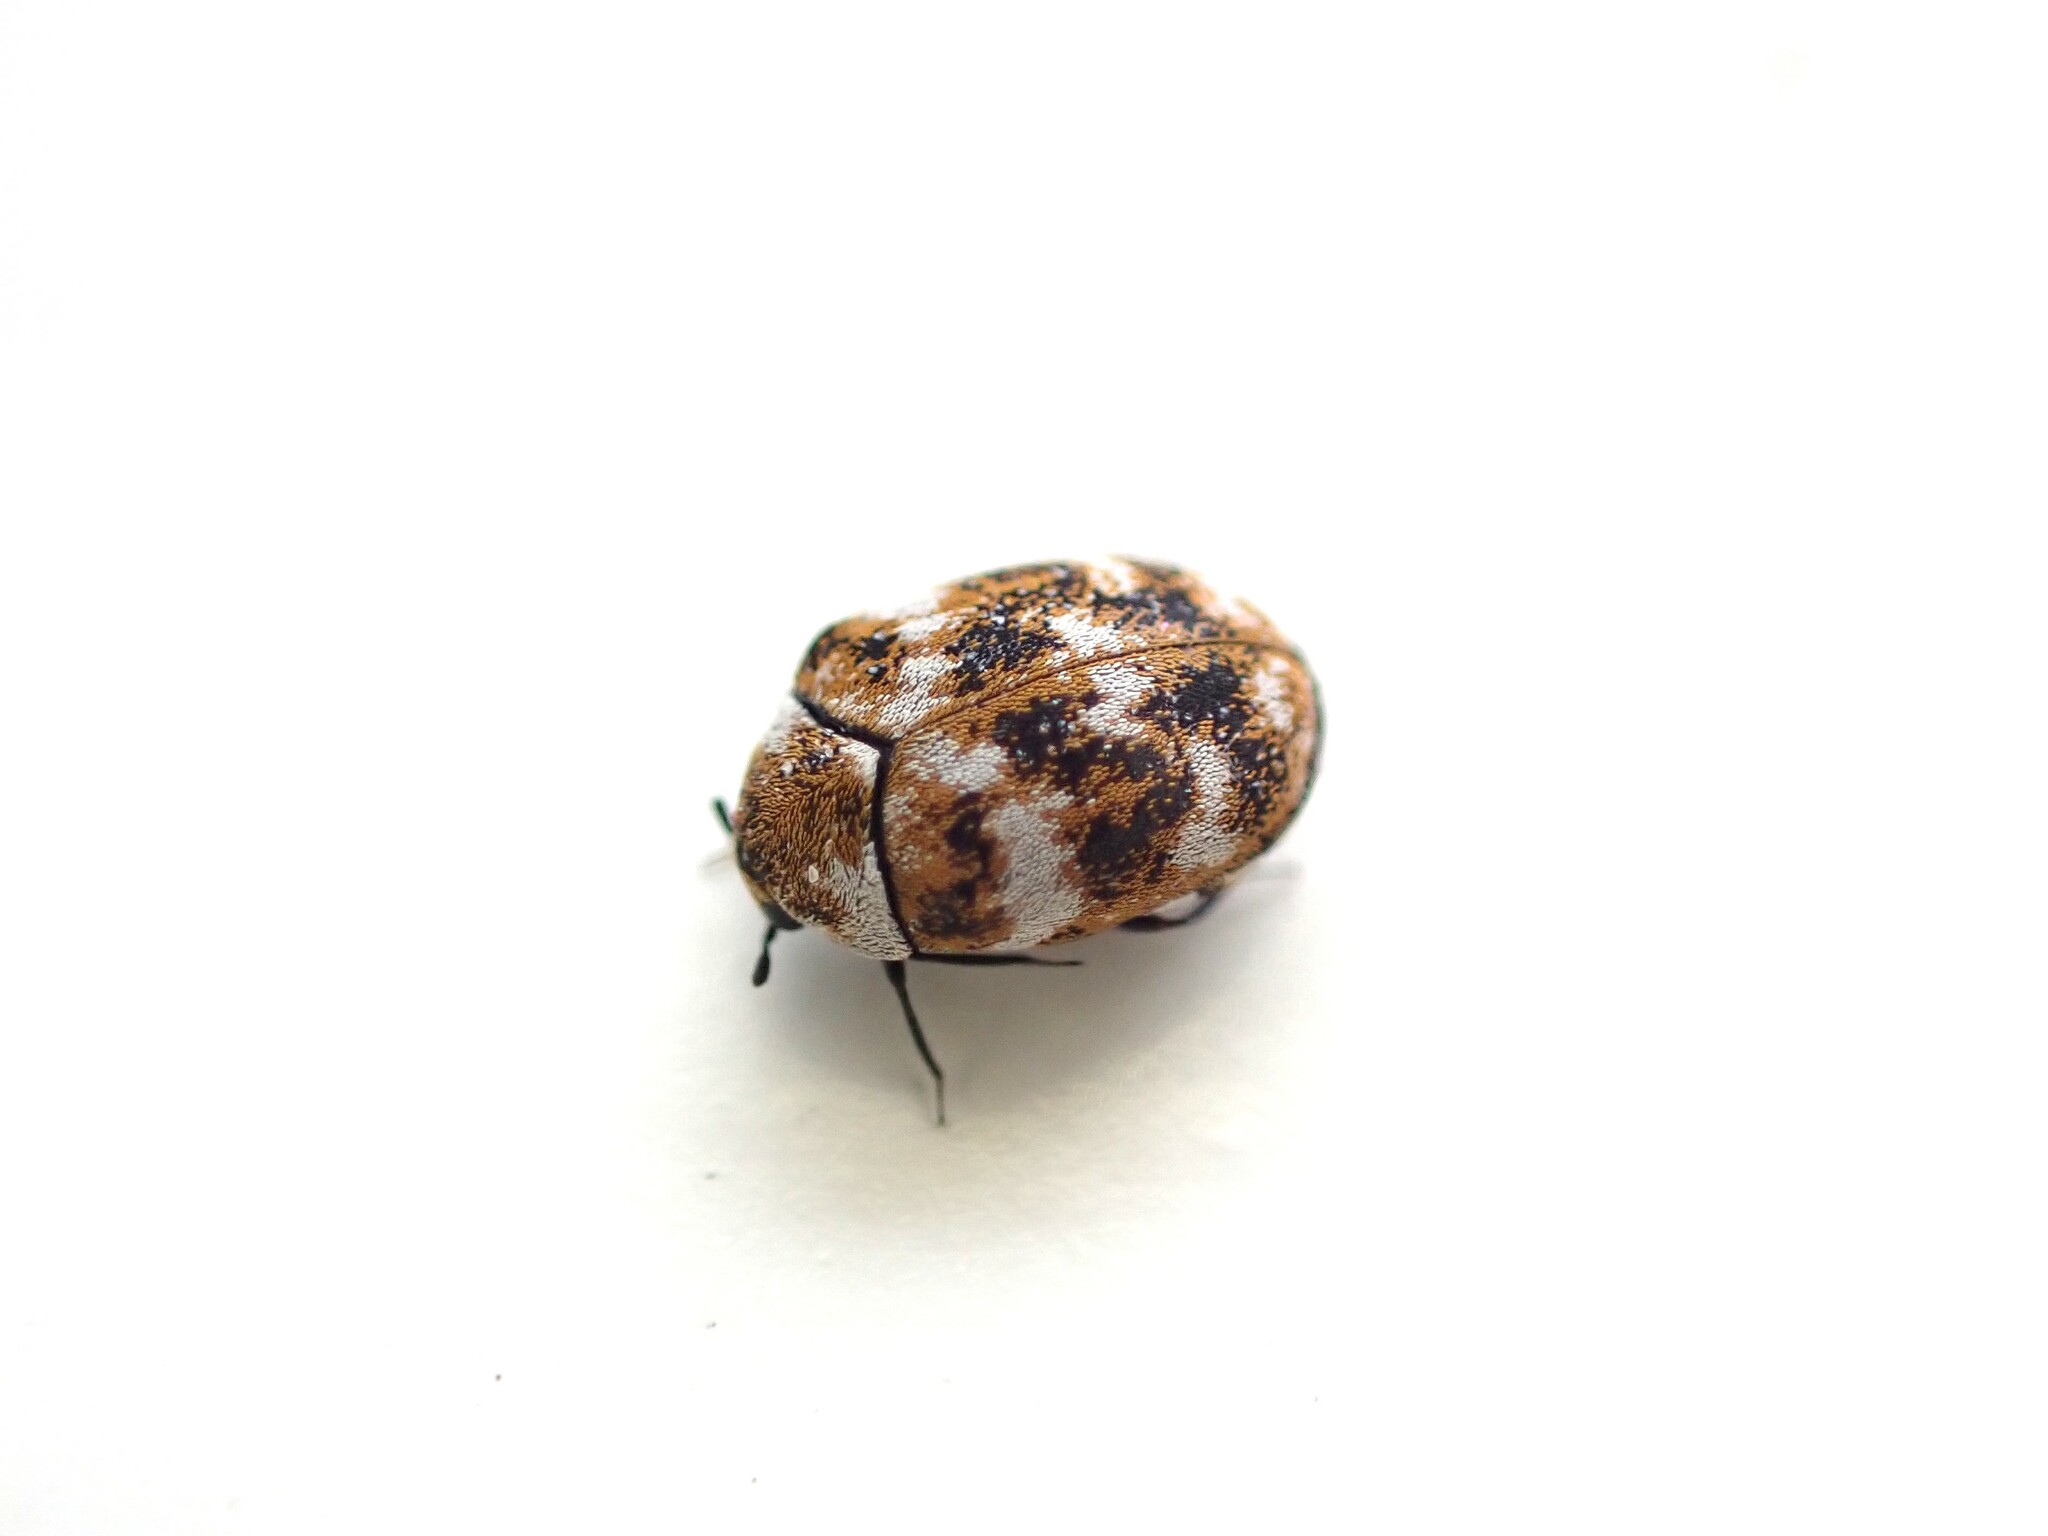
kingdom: Animalia
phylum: Arthropoda
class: Insecta
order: Coleoptera
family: Dermestidae
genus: Anthrenus
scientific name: Anthrenus verbasci
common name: Varied carpet beetle
